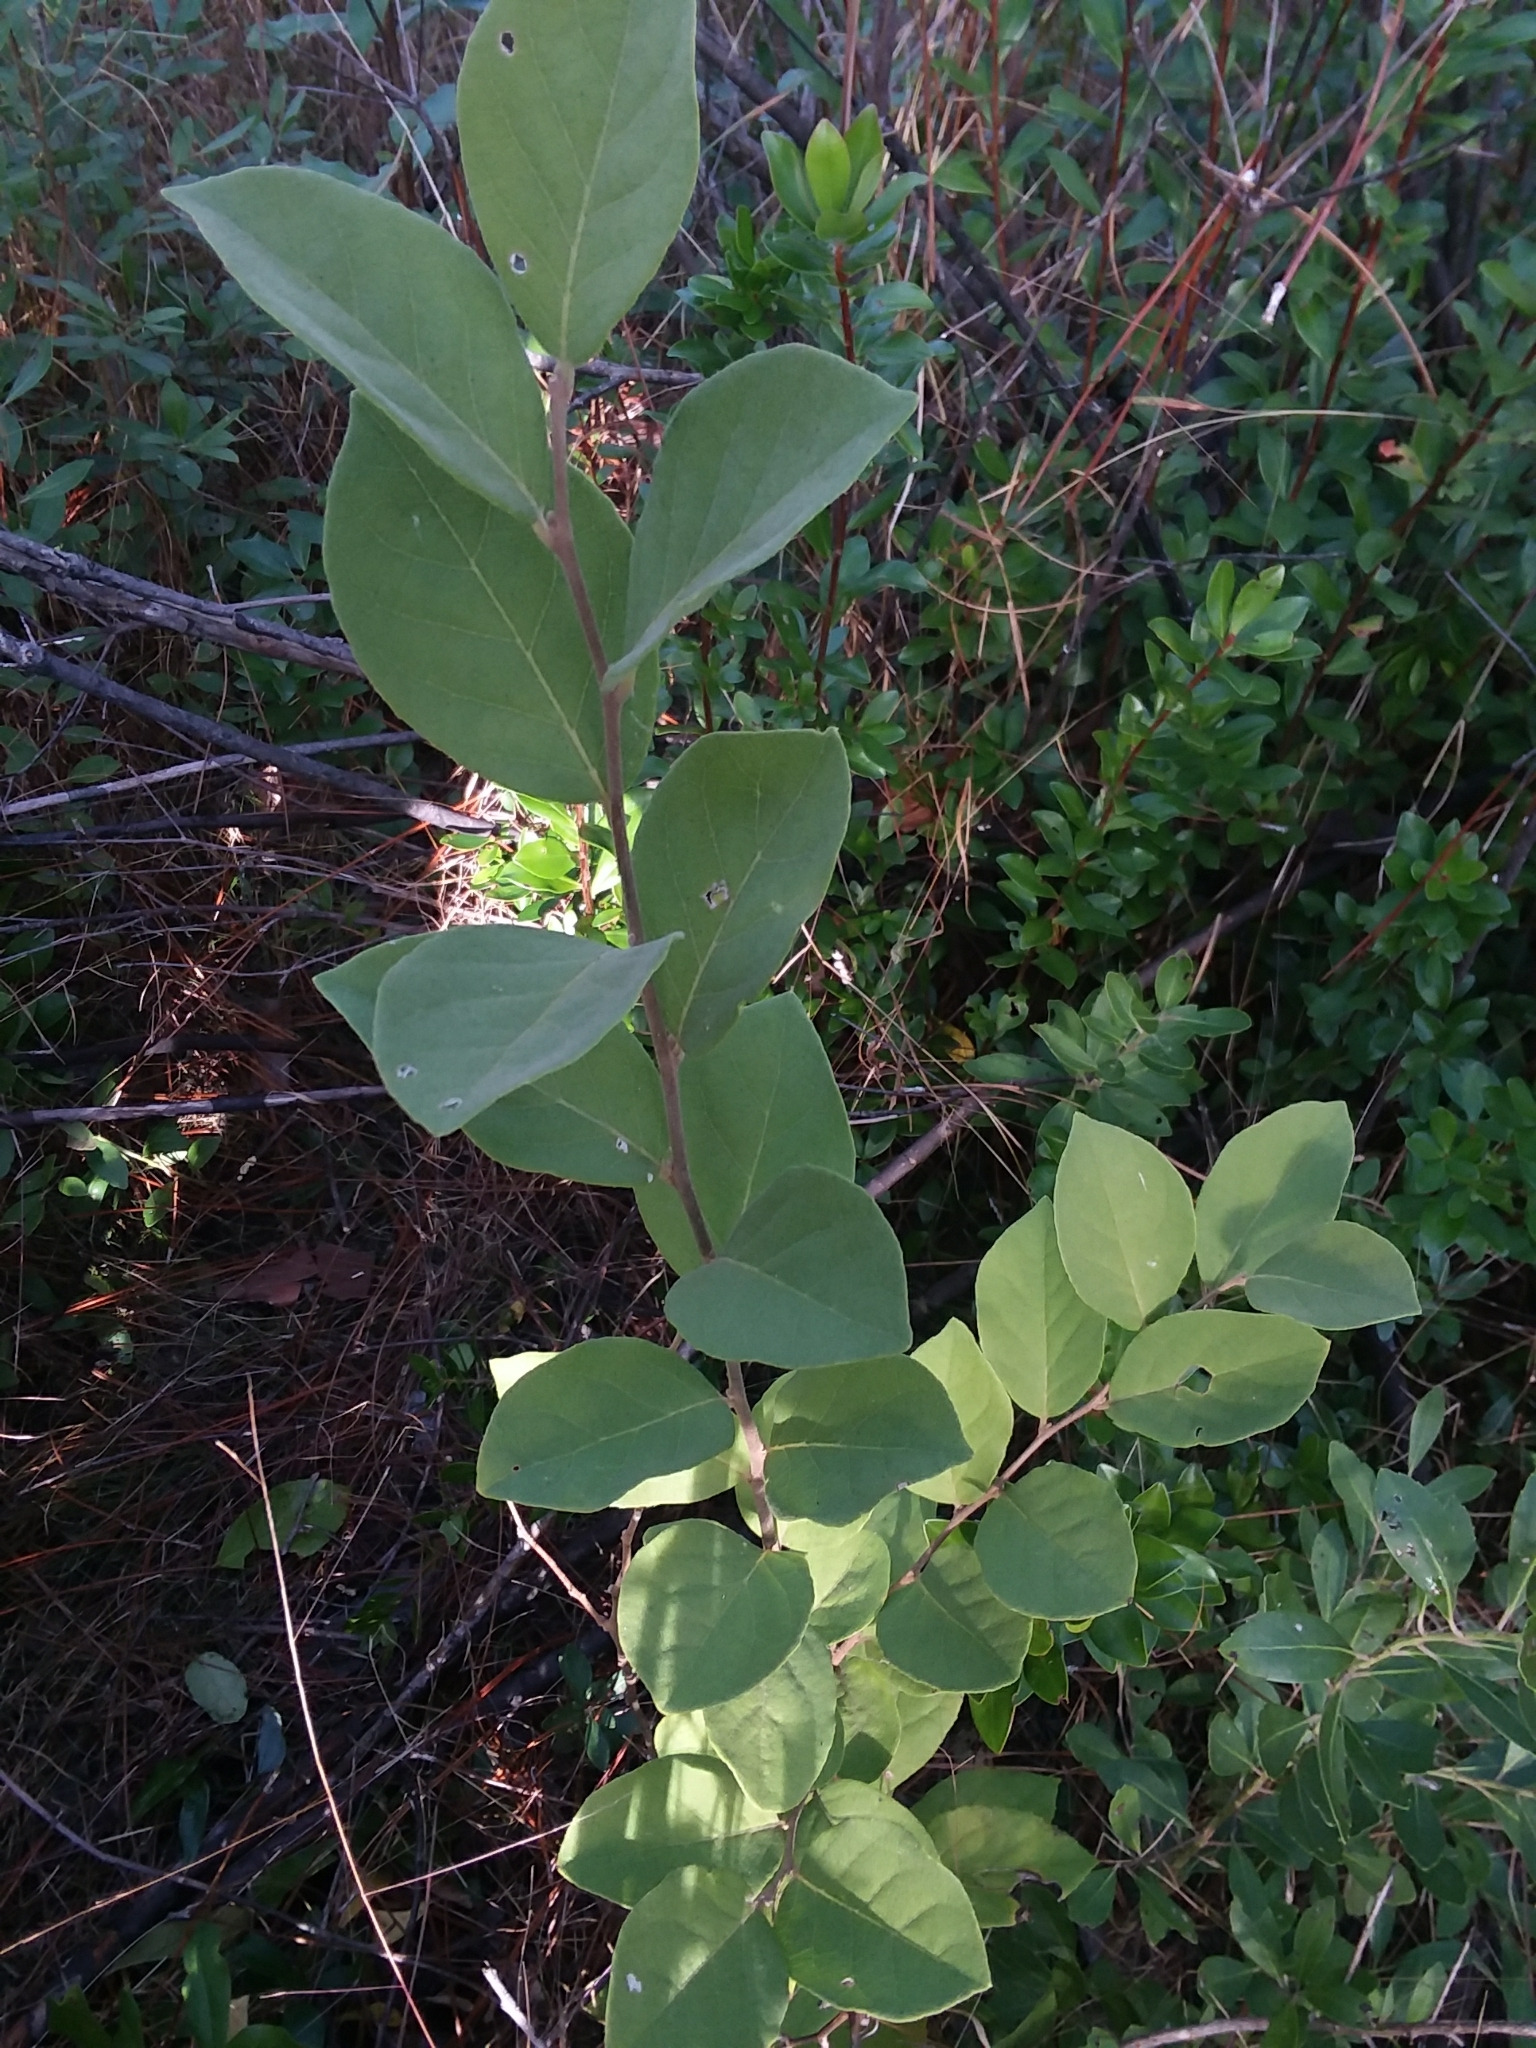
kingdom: Plantae
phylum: Tracheophyta
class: Magnoliopsida
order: Ericales
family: Styracaceae
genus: Styrax
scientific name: Styrax americanus
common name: American snowbell
